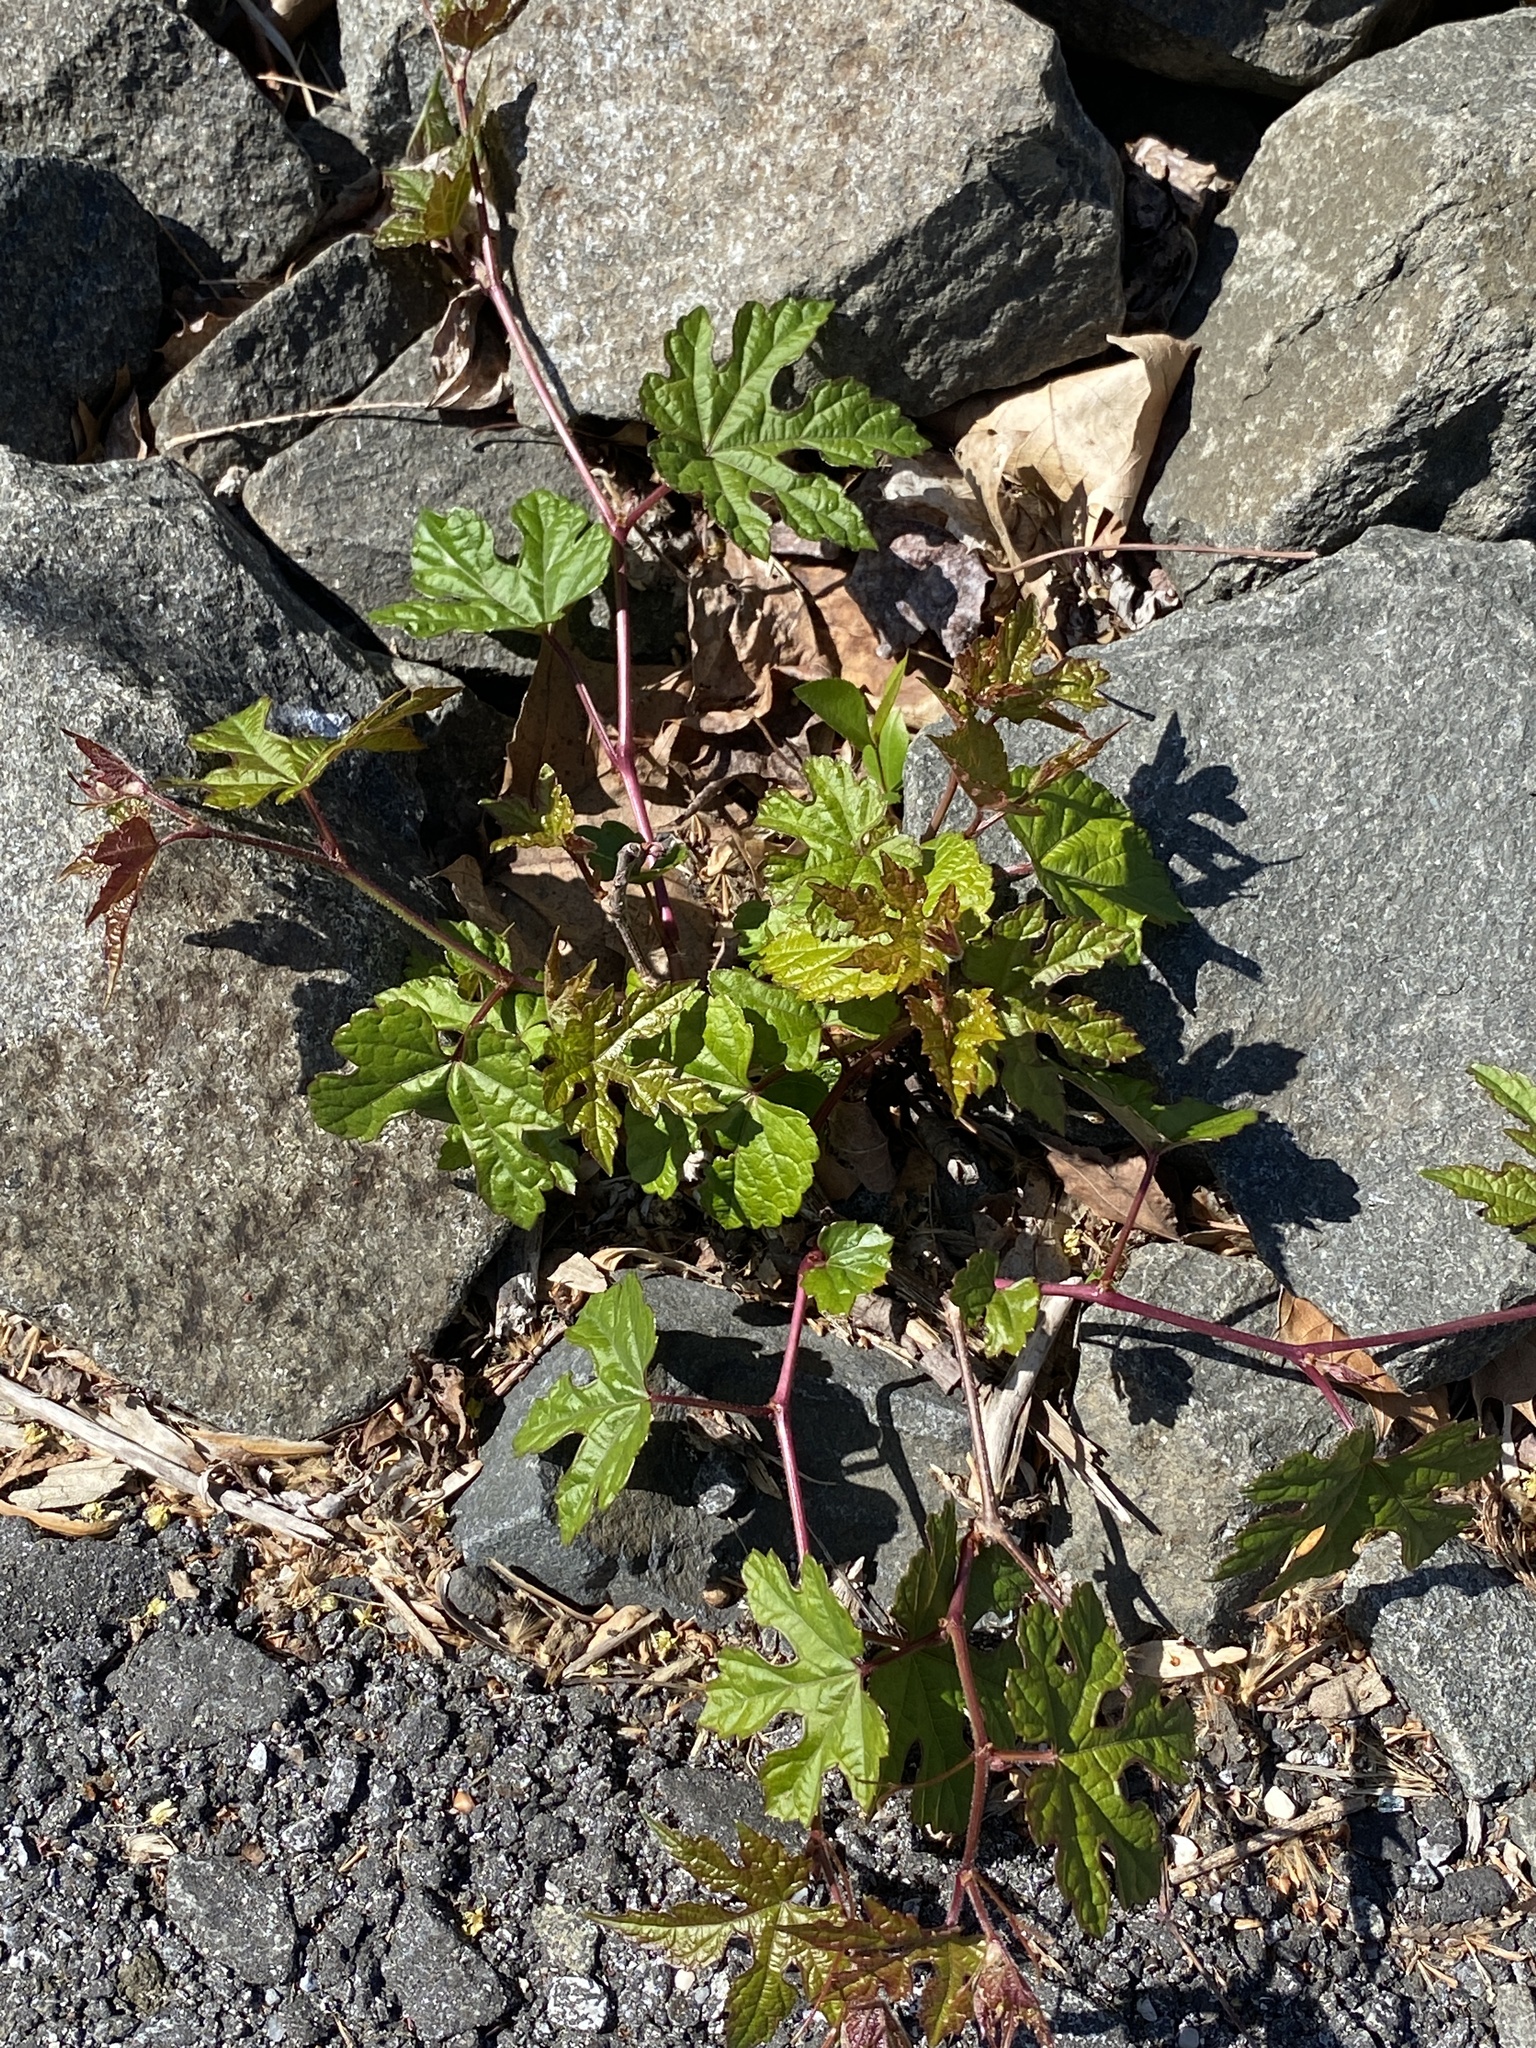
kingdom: Plantae
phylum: Tracheophyta
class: Magnoliopsida
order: Vitales
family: Vitaceae
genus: Ampelopsis
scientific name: Ampelopsis glandulosa
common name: Amur peppervine
